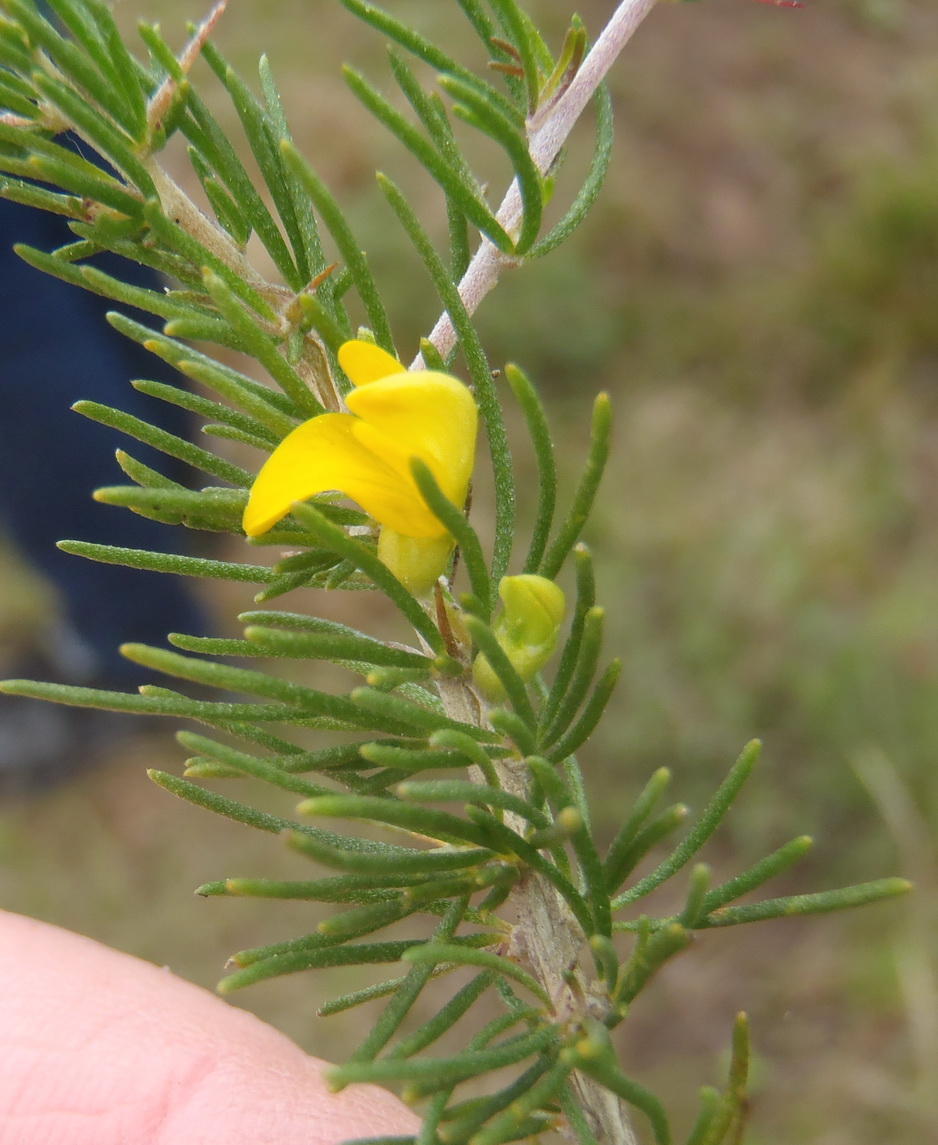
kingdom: Plantae
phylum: Tracheophyta
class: Magnoliopsida
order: Fabales
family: Fabaceae
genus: Aspalathus
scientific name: Aspalathus spinosa
